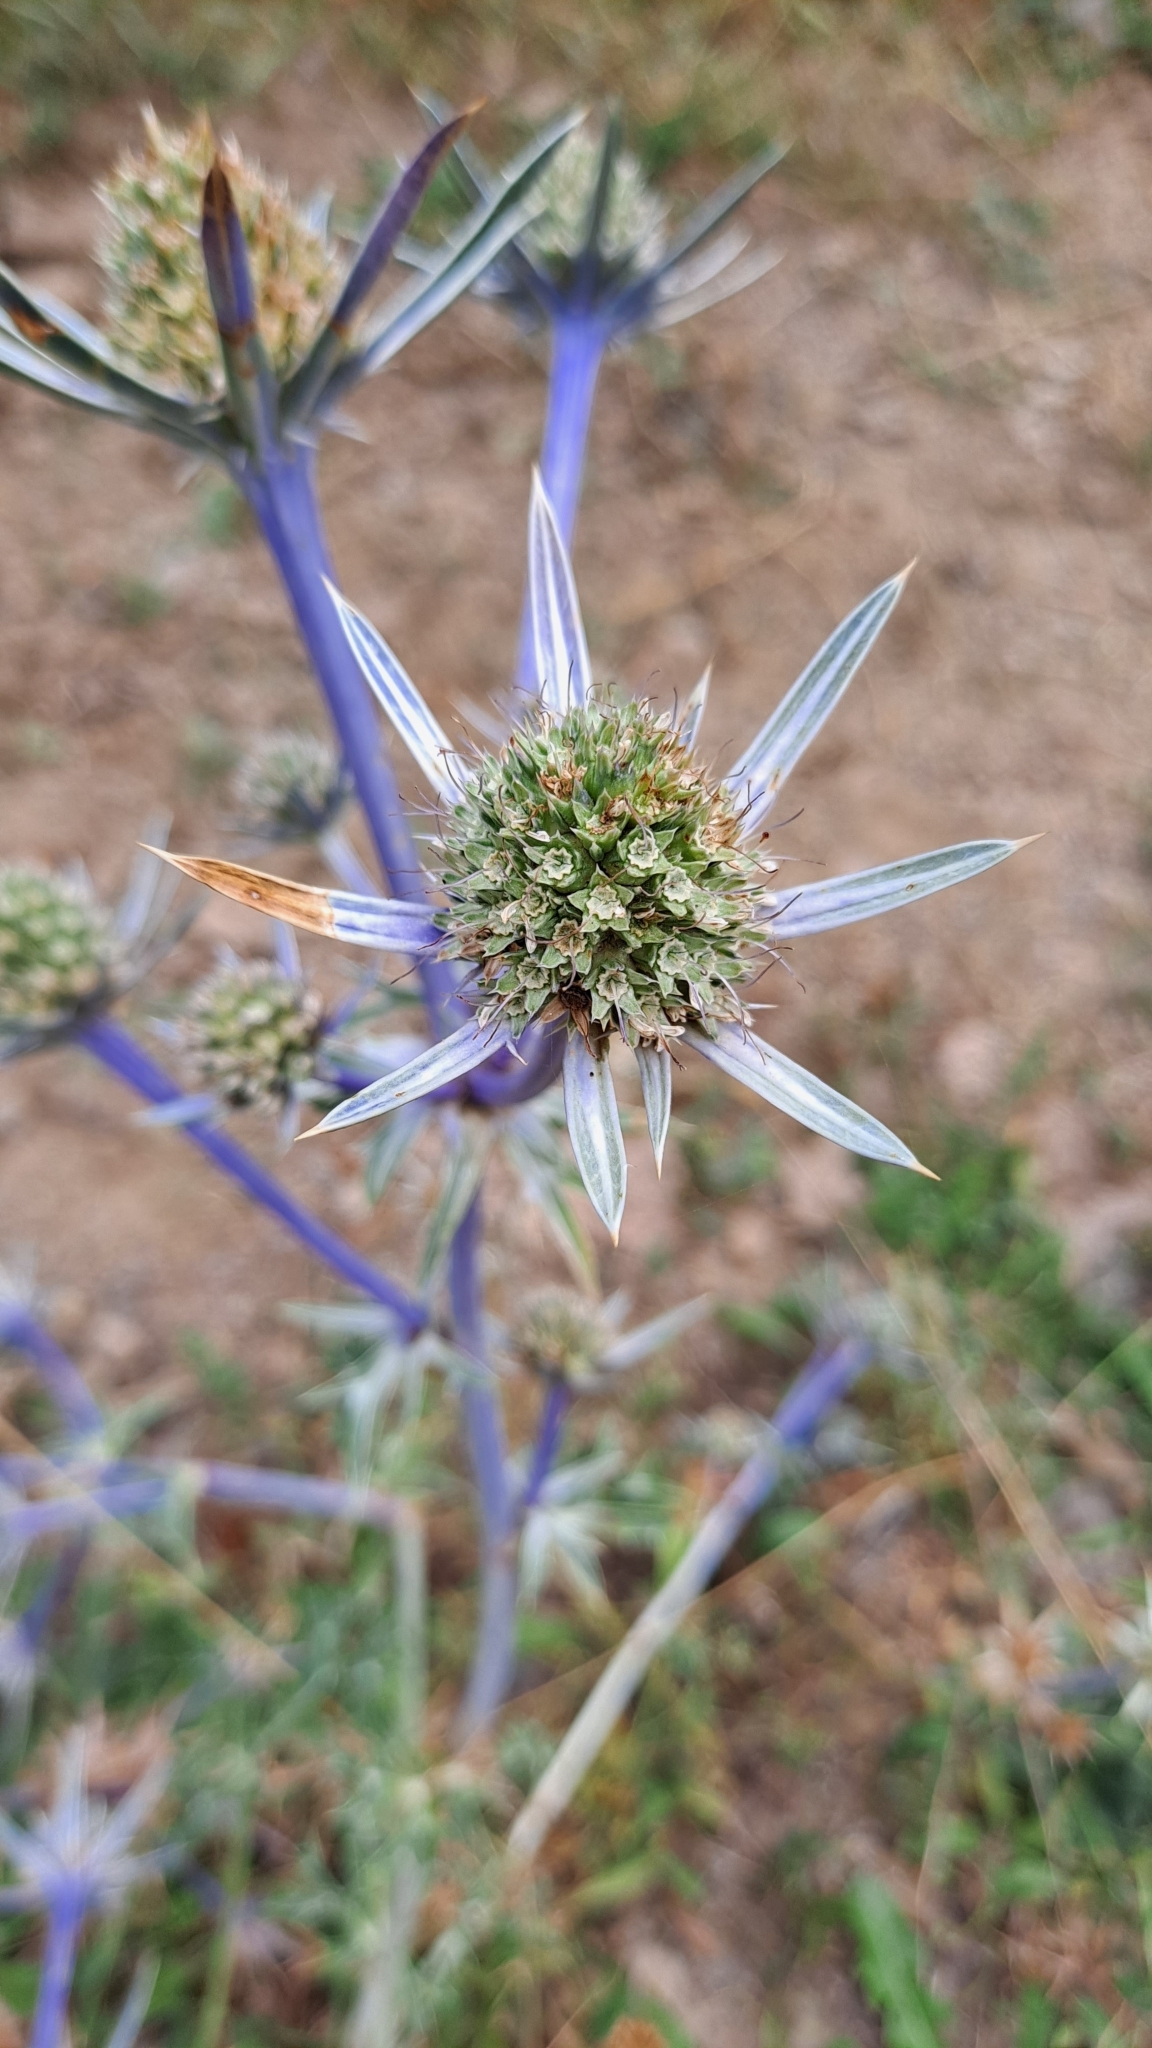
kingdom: Plantae
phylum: Tracheophyta
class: Magnoliopsida
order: Apiales
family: Apiaceae
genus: Eryngium
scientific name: Eryngium bourgatii
